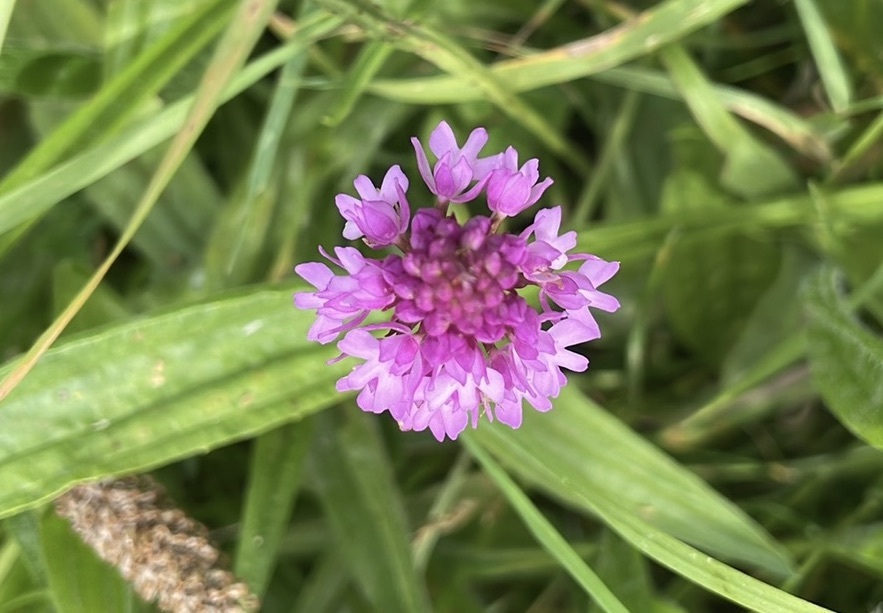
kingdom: Plantae
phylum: Tracheophyta
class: Liliopsida
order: Asparagales
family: Orchidaceae
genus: Anacamptis
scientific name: Anacamptis pyramidalis
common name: Pyramidal orchid
